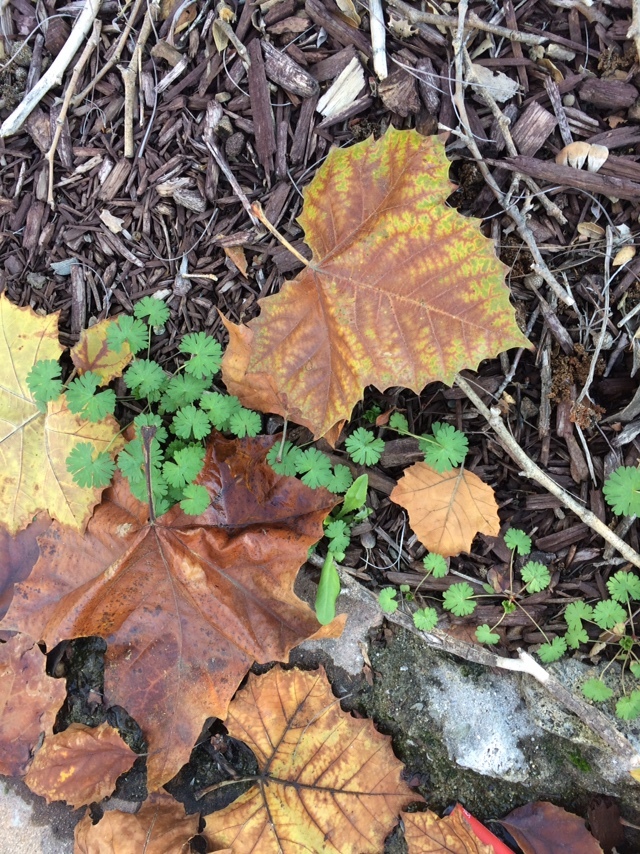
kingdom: Plantae
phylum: Tracheophyta
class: Magnoliopsida
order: Geraniales
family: Geraniaceae
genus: Geranium
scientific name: Geranium
